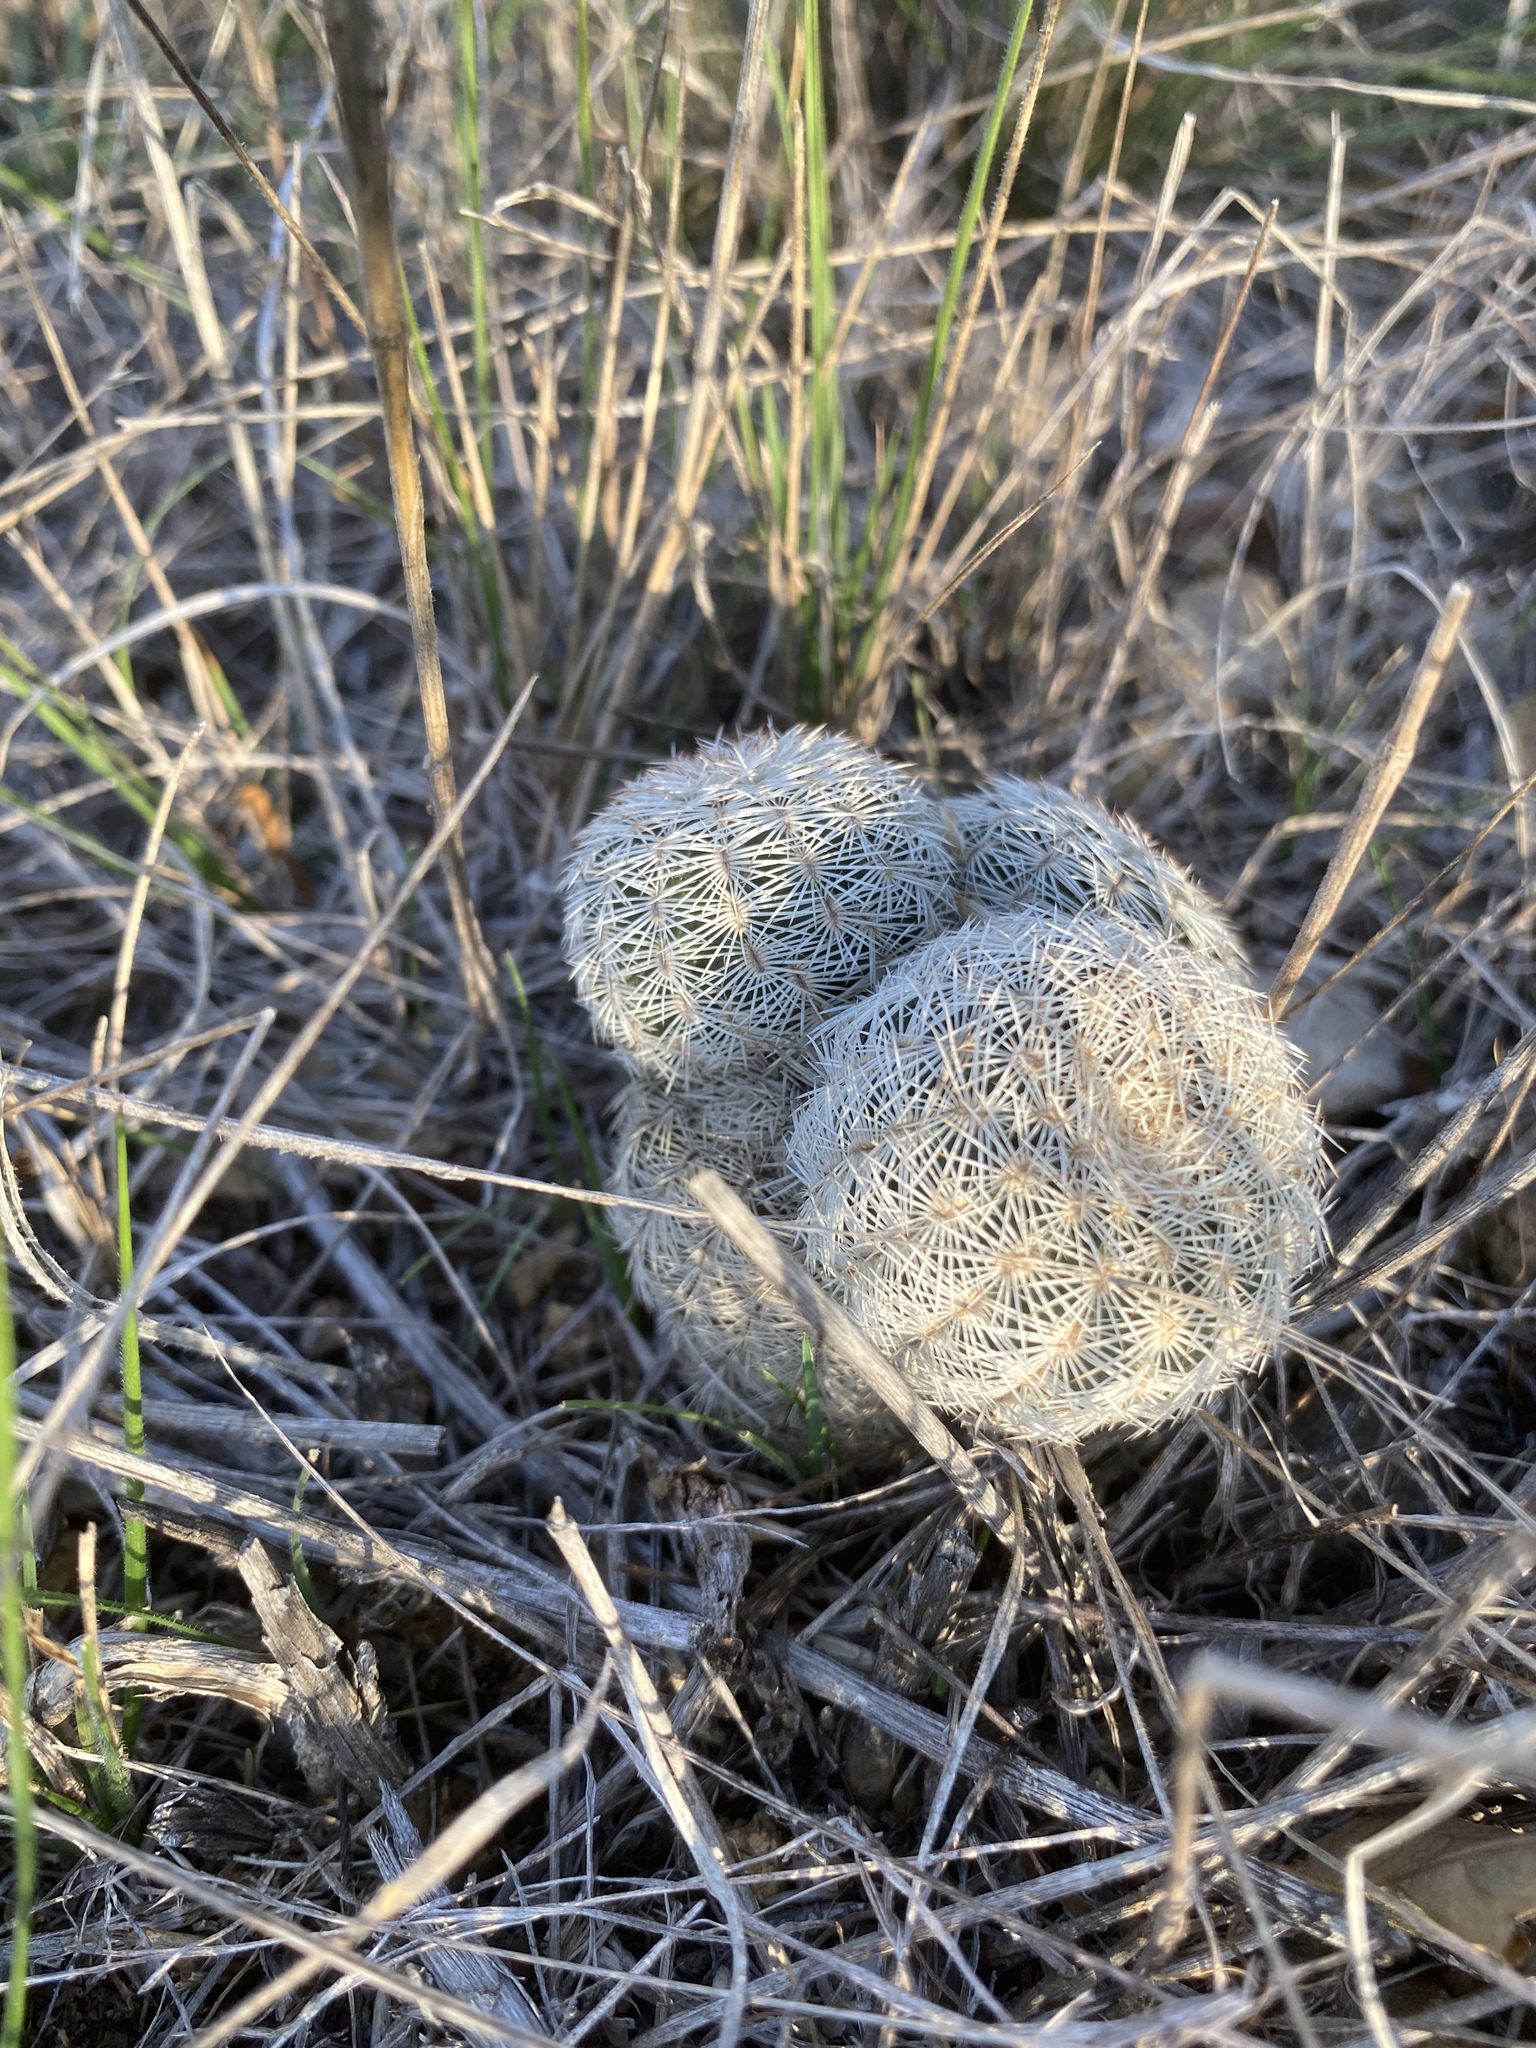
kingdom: Plantae
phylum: Tracheophyta
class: Magnoliopsida
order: Caryophyllales
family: Cactaceae
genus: Echinocereus
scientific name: Echinocereus reichenbachii
